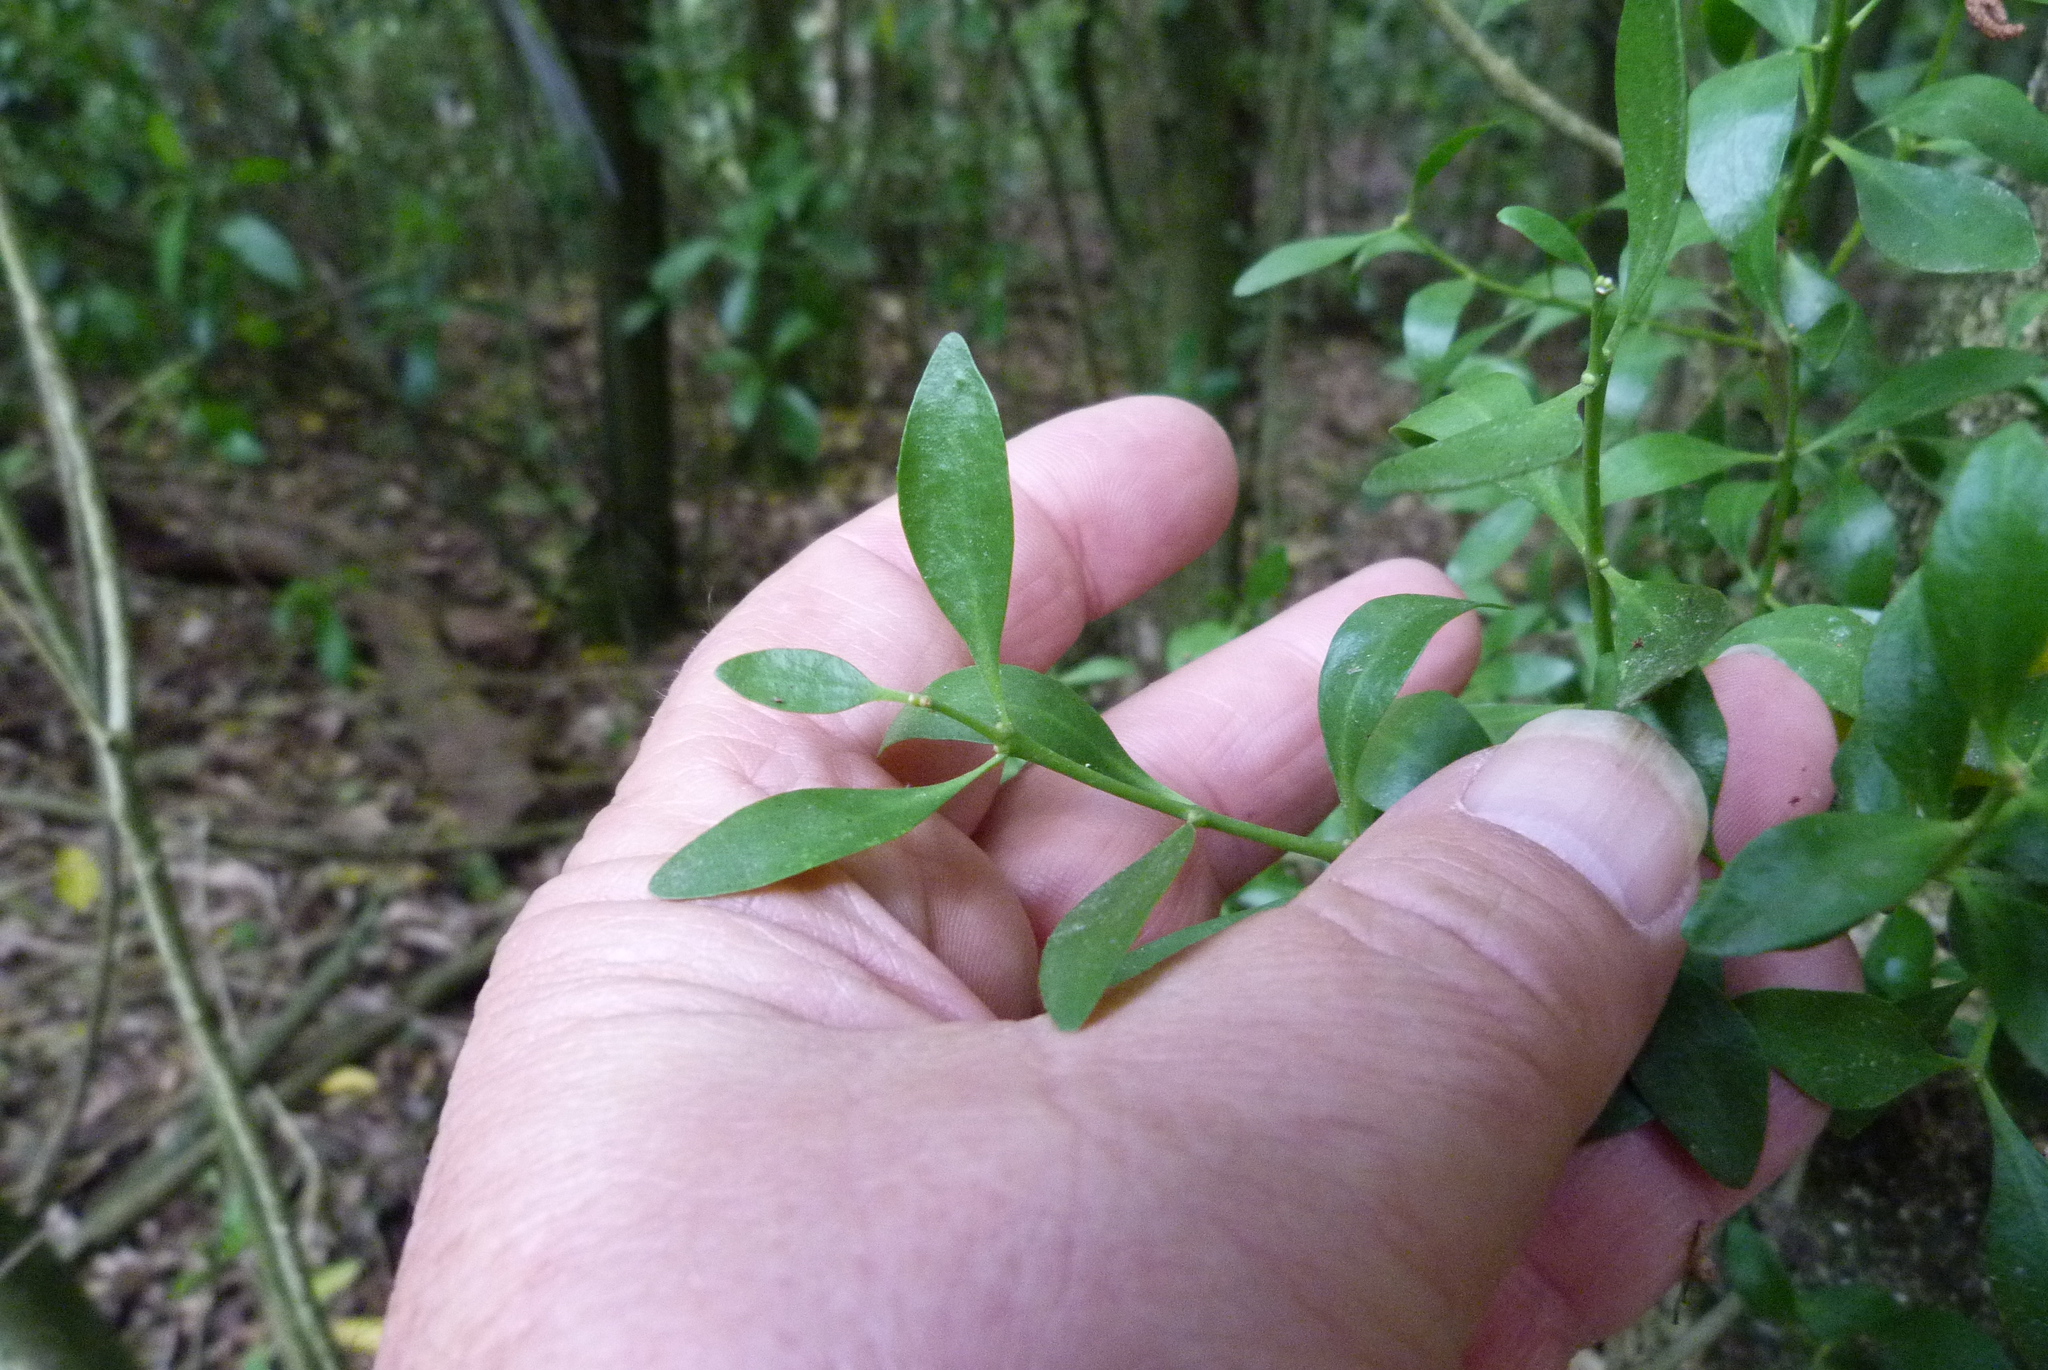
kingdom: Plantae
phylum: Tracheophyta
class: Magnoliopsida
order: Santalales
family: Loranthaceae
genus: Tupeia
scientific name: Tupeia antarctica
